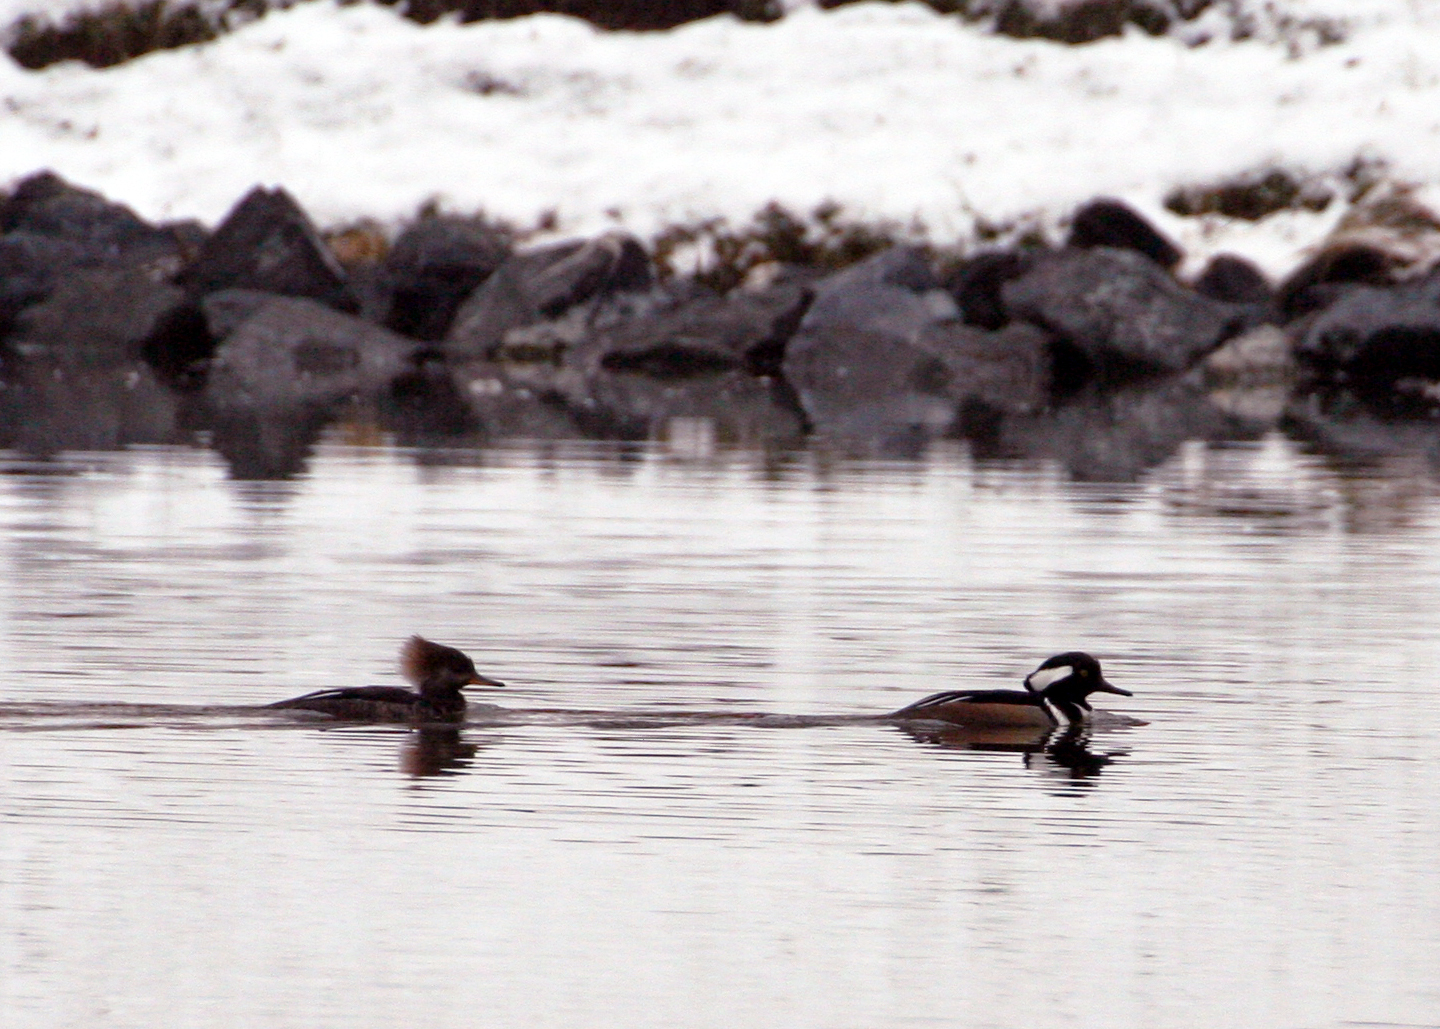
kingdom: Animalia
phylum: Chordata
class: Aves
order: Anseriformes
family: Anatidae
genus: Lophodytes
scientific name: Lophodytes cucullatus
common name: Hooded merganser
